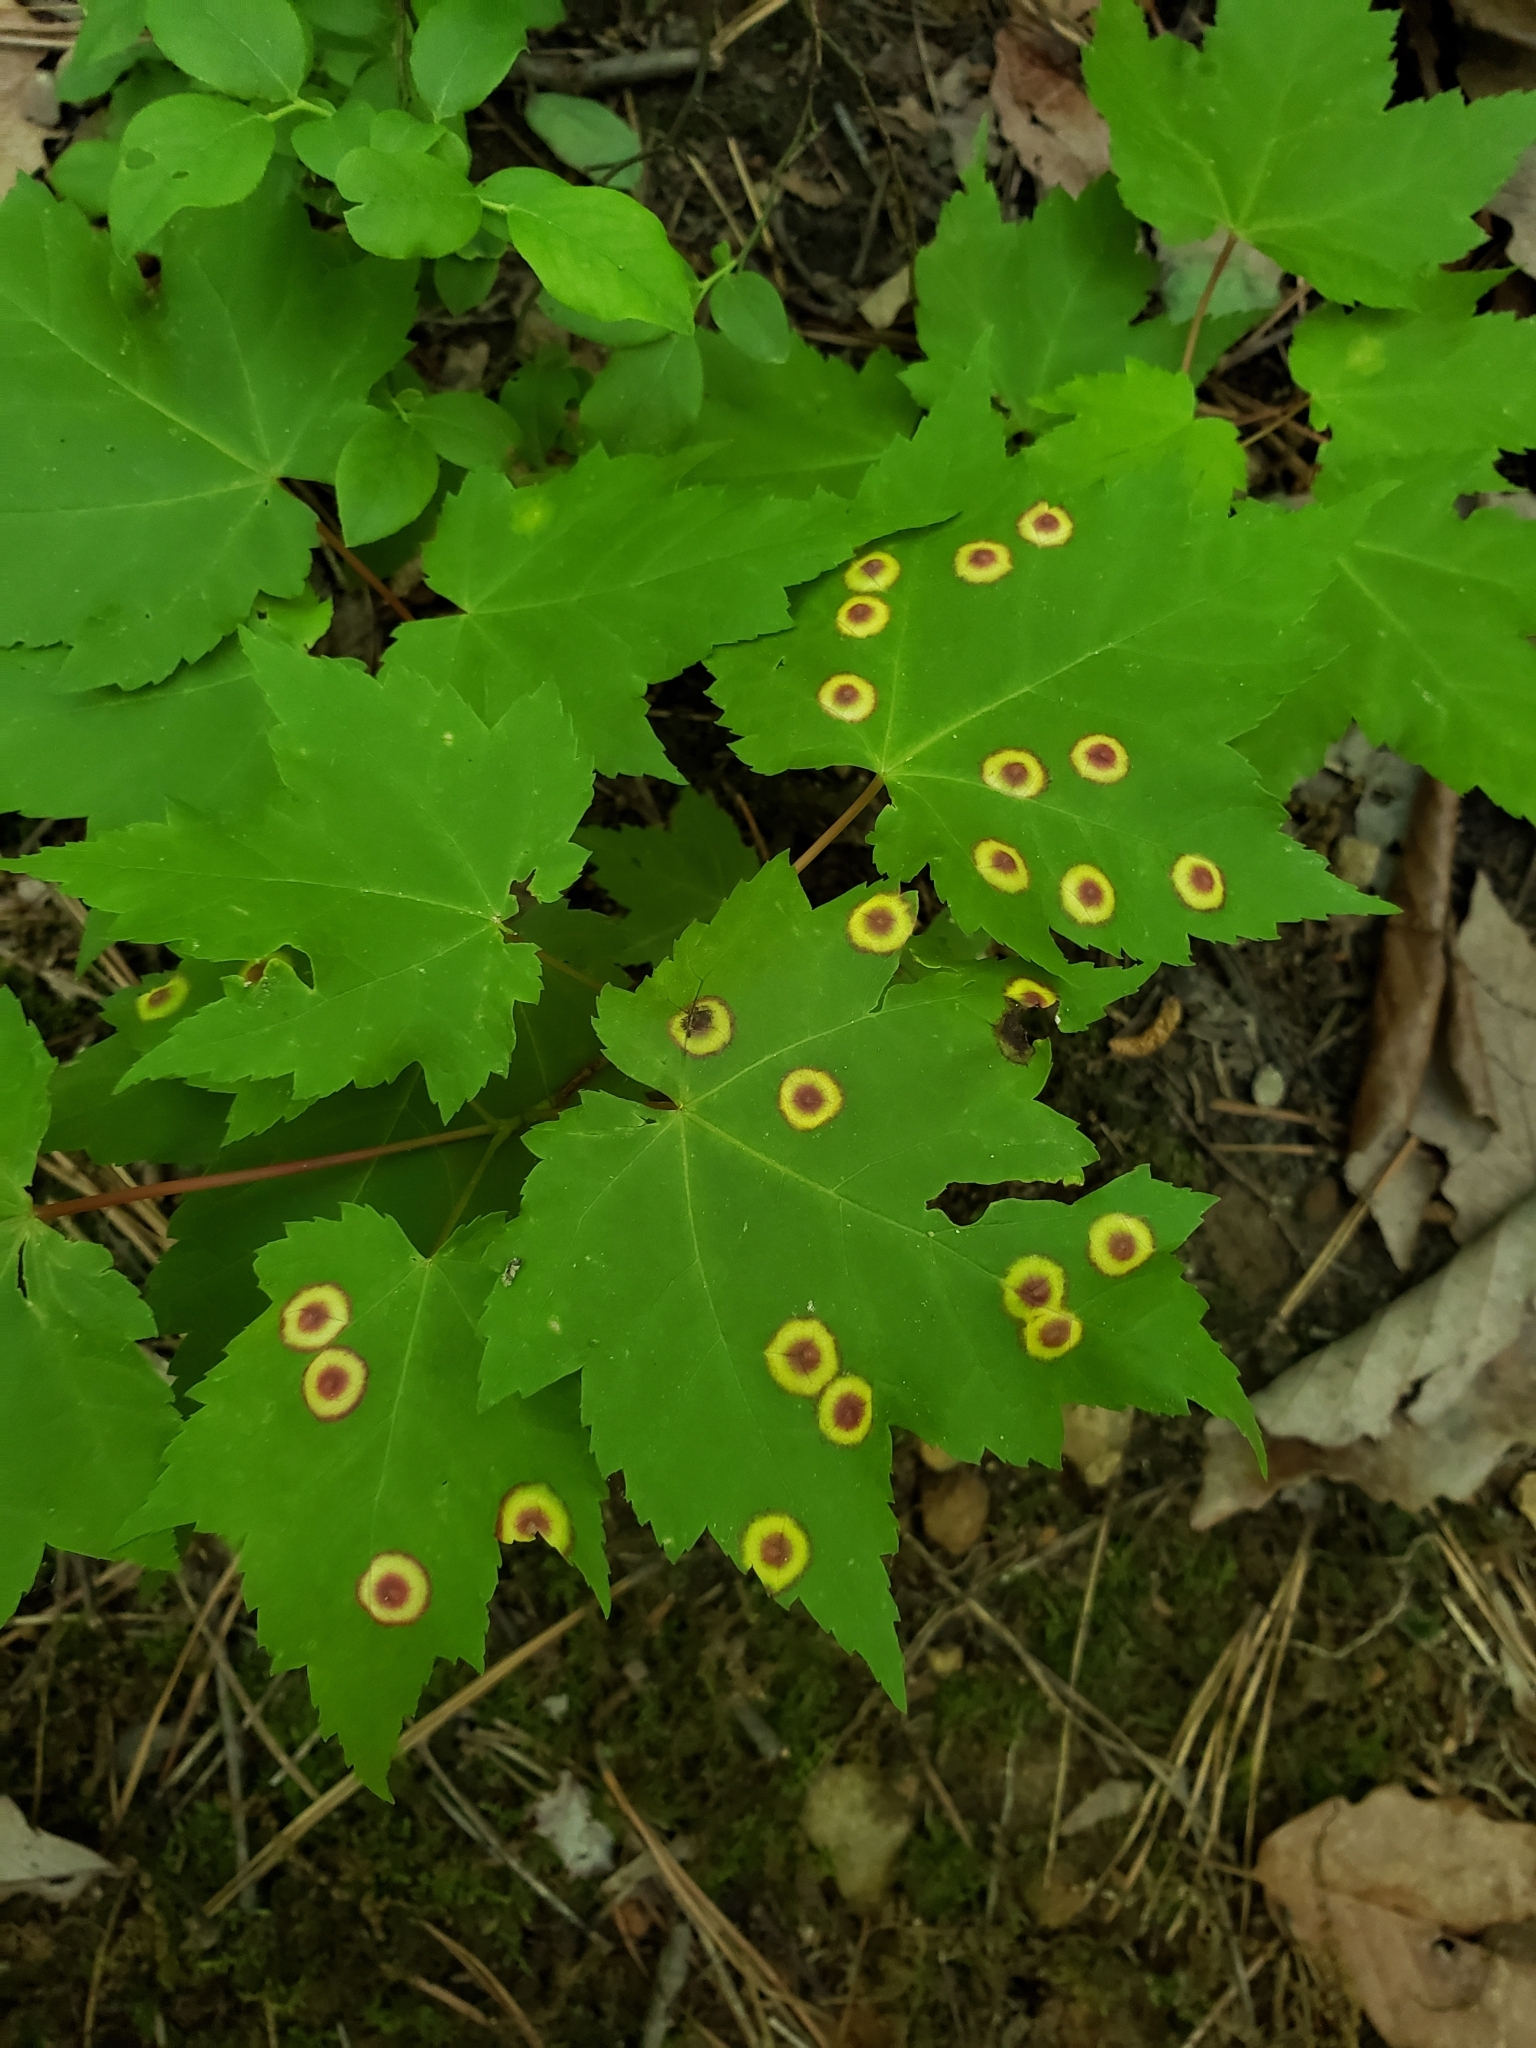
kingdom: Animalia
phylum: Arthropoda
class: Insecta
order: Diptera
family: Cecidomyiidae
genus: Acericecis
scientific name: Acericecis ocellaris
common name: Ocellate gall midge
